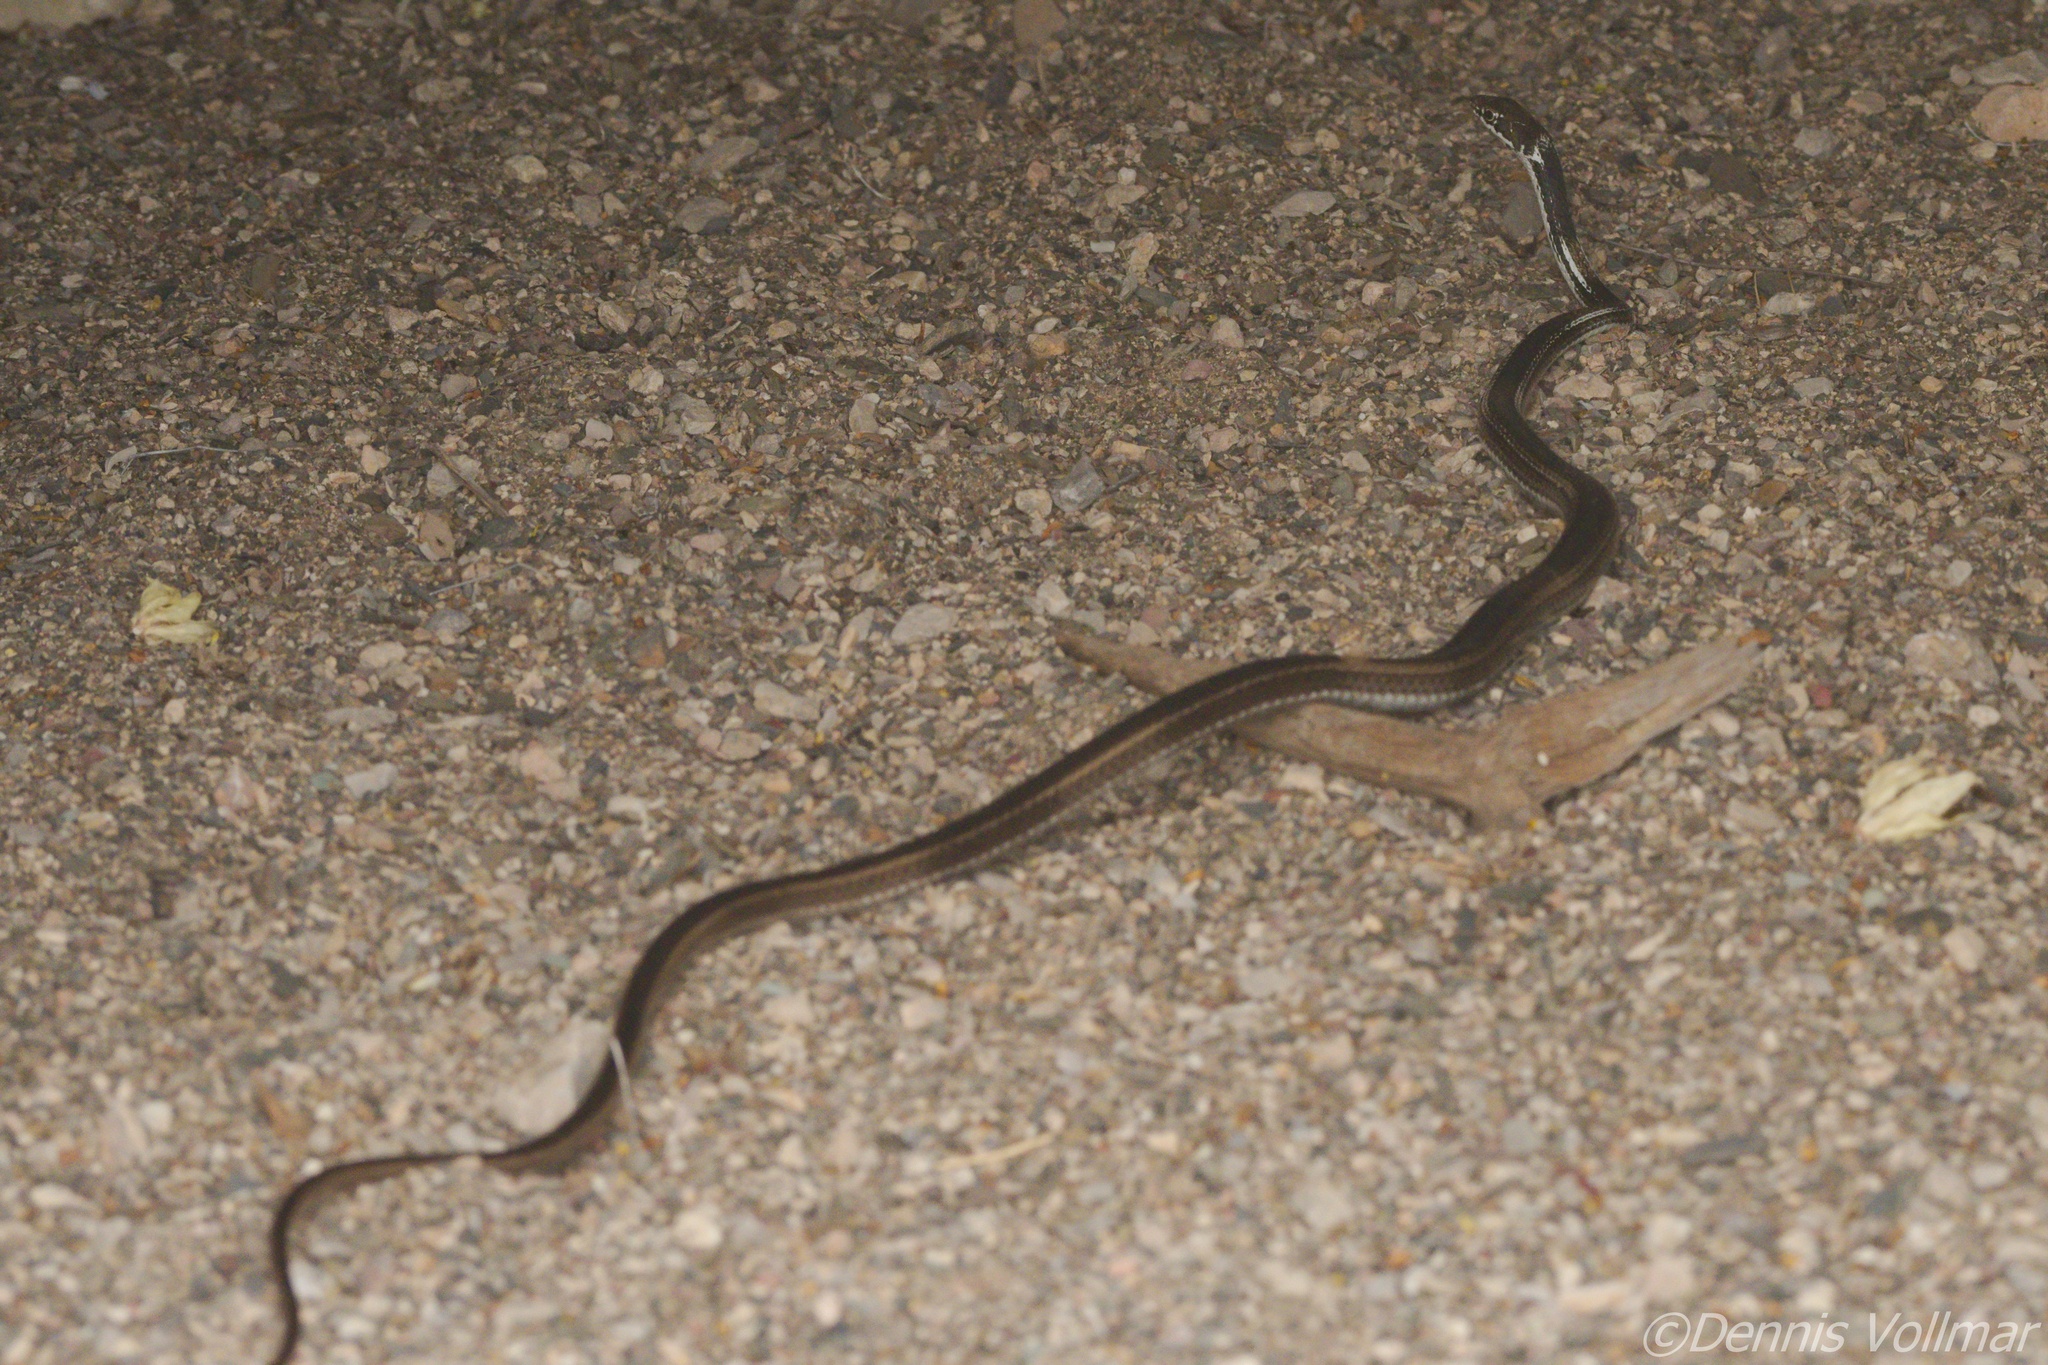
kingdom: Animalia
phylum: Chordata
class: Squamata
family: Colubridae
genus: Masticophis
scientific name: Masticophis taeniatus
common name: Striped whipsnake
